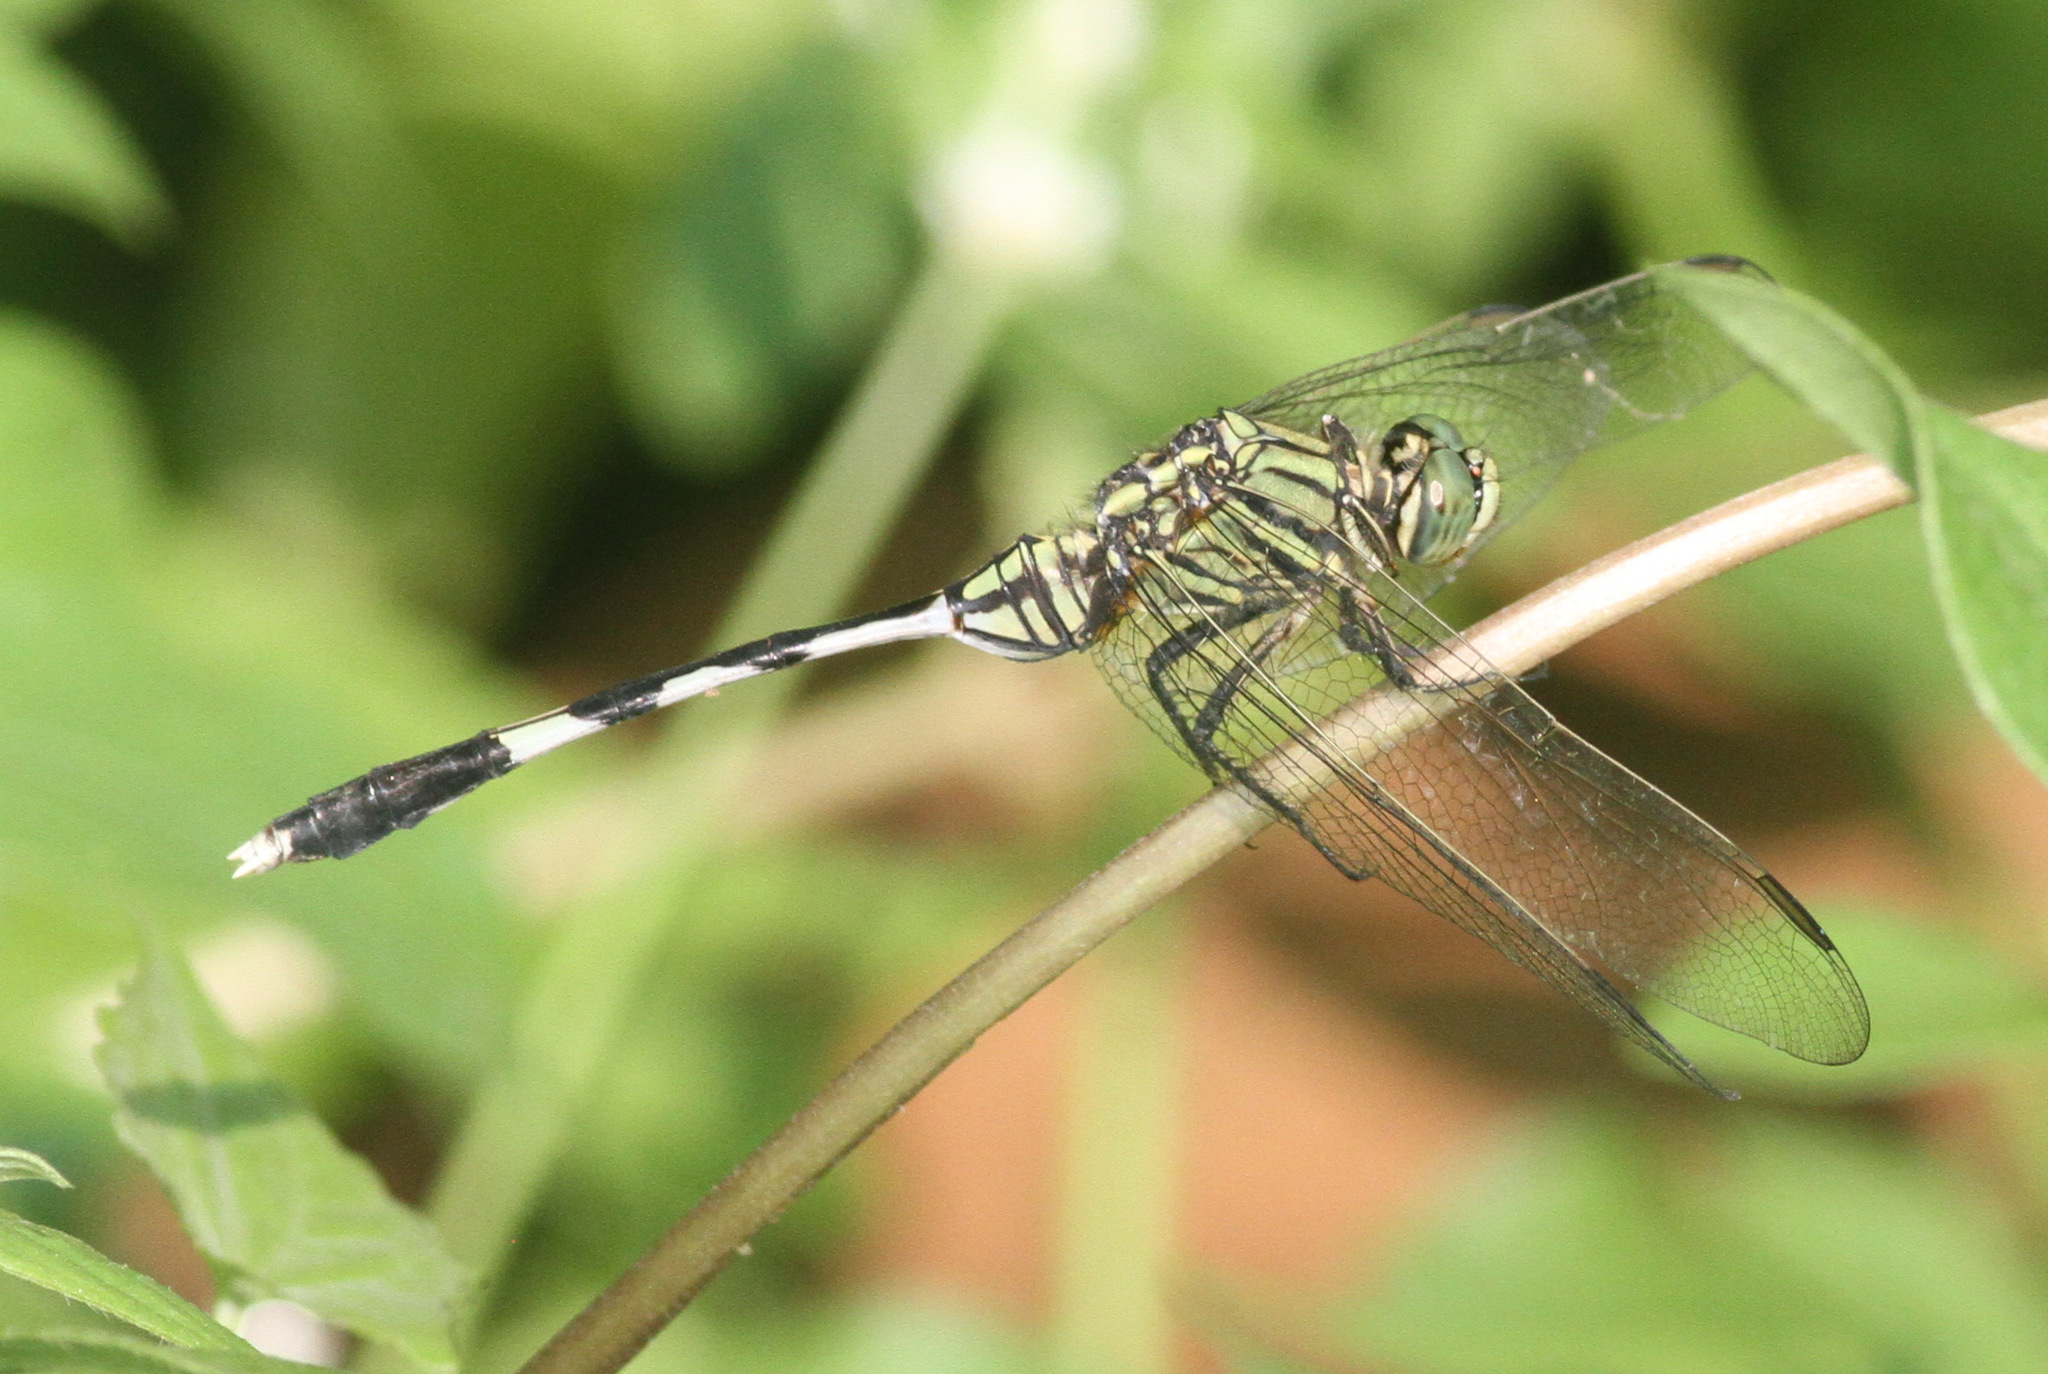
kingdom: Animalia
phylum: Arthropoda
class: Insecta
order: Odonata
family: Libellulidae
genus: Orthetrum
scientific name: Orthetrum sabina
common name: Slender skimmer
